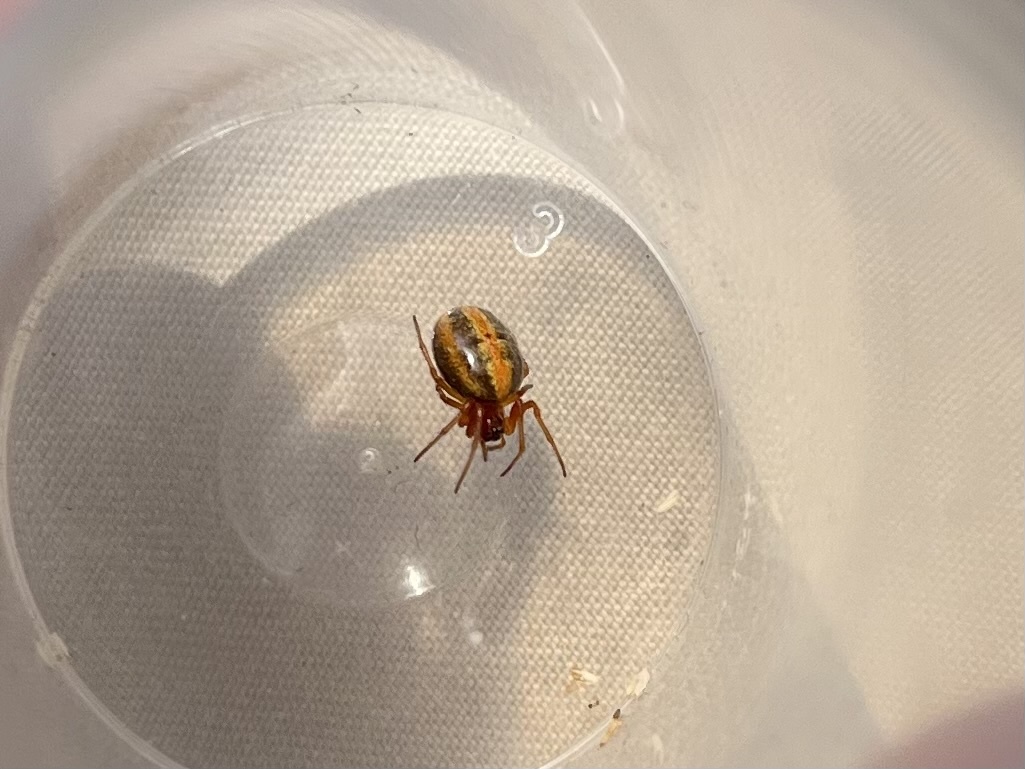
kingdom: Animalia
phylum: Arthropoda
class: Arachnida
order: Araneae
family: Araneidae
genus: Hypsosinga
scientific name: Hypsosinga heri
